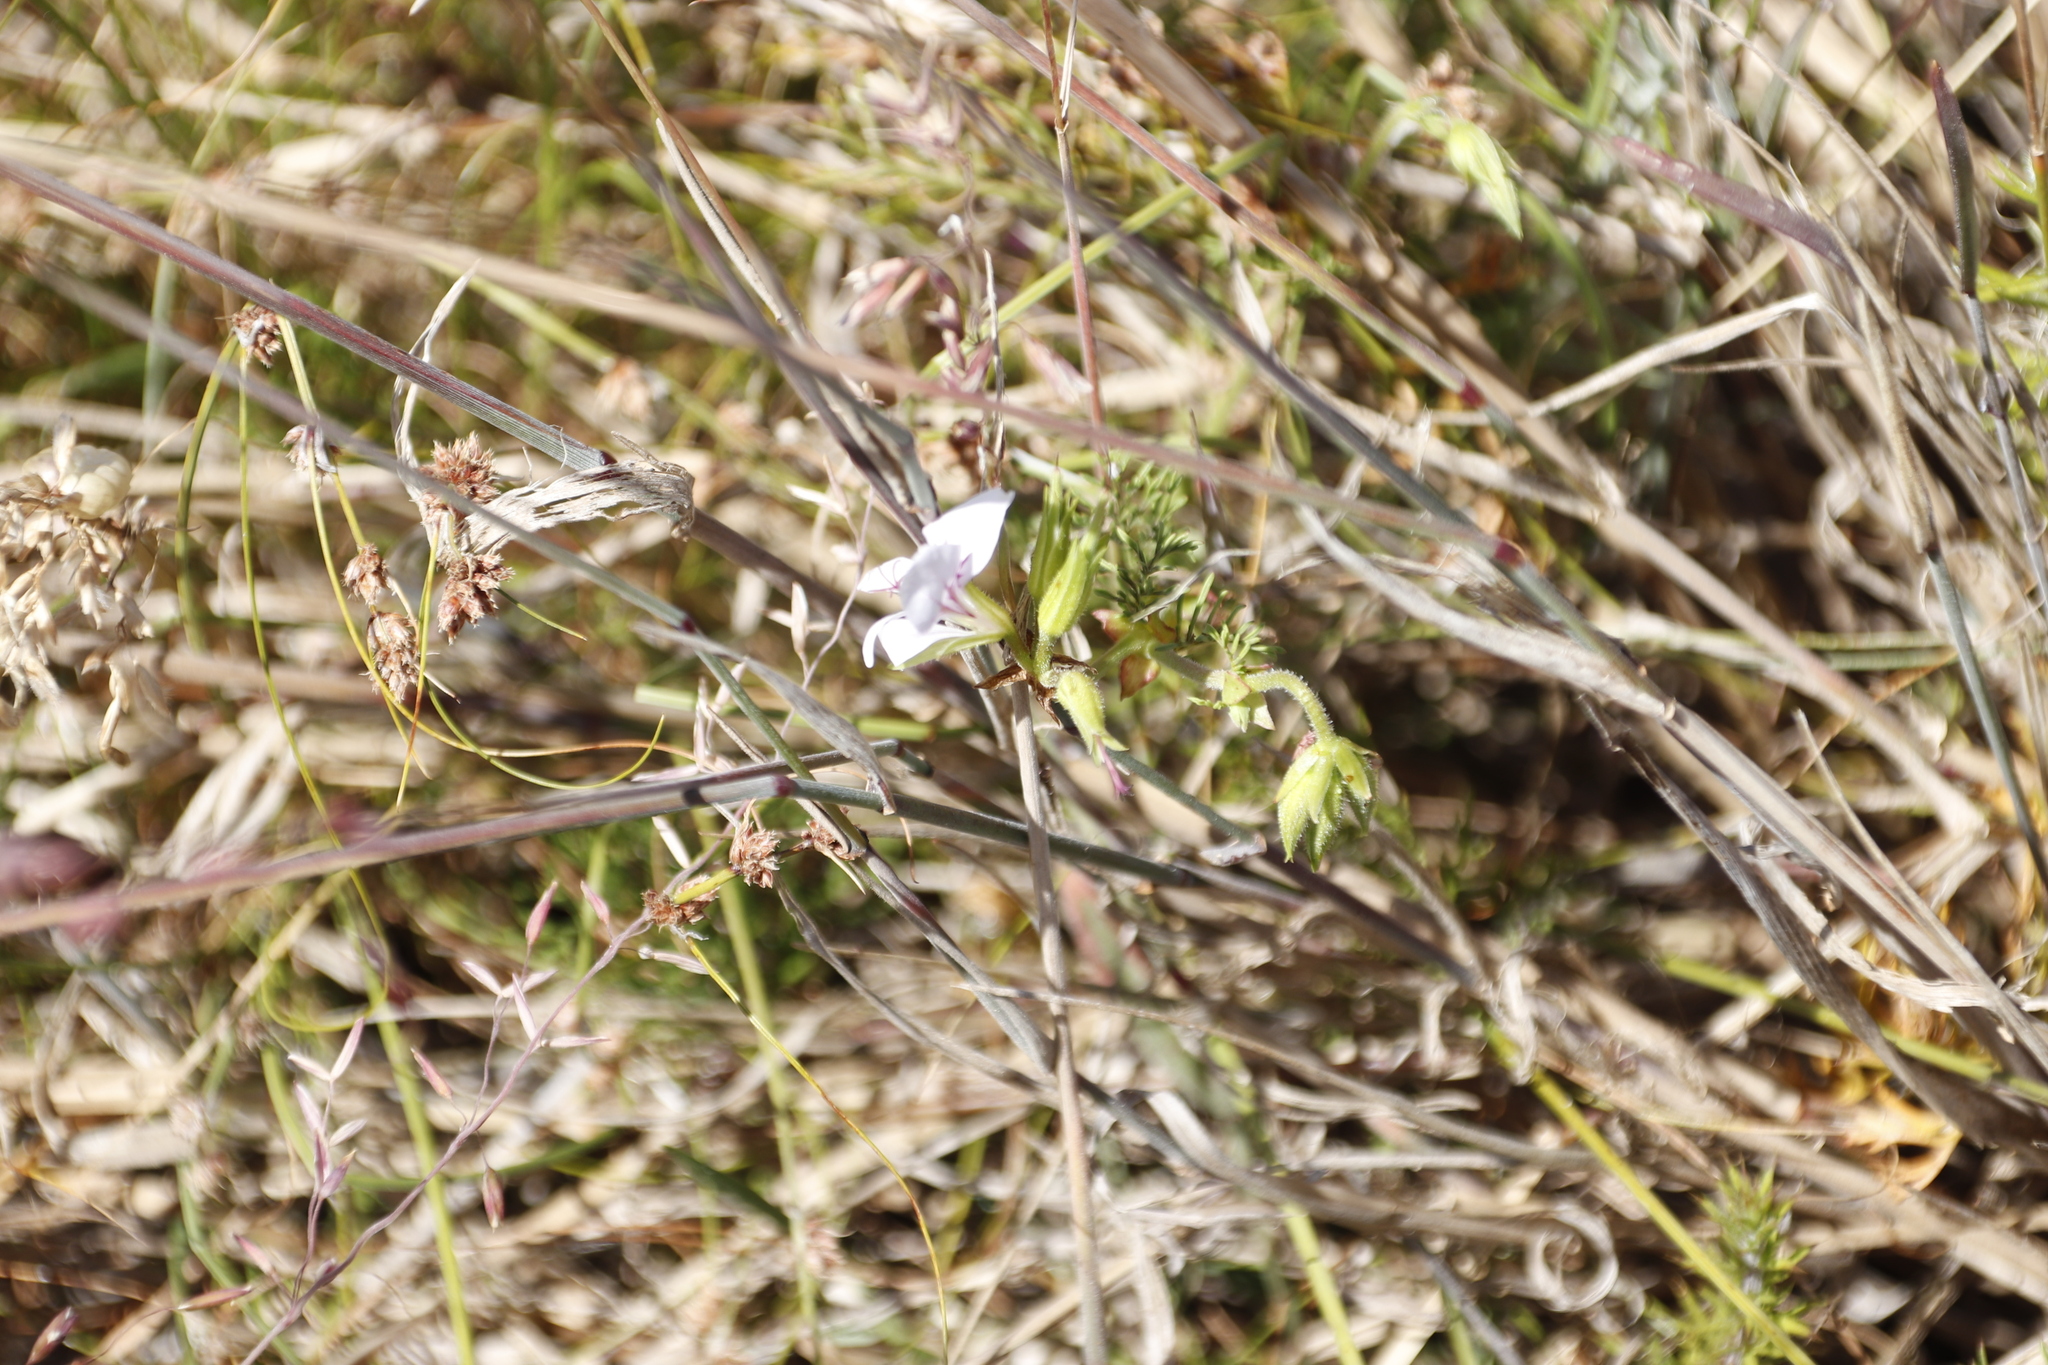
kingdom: Plantae
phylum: Tracheophyta
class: Magnoliopsida
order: Geraniales
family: Geraniaceae
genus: Pelargonium
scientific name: Pelargonium myrrhifolium
